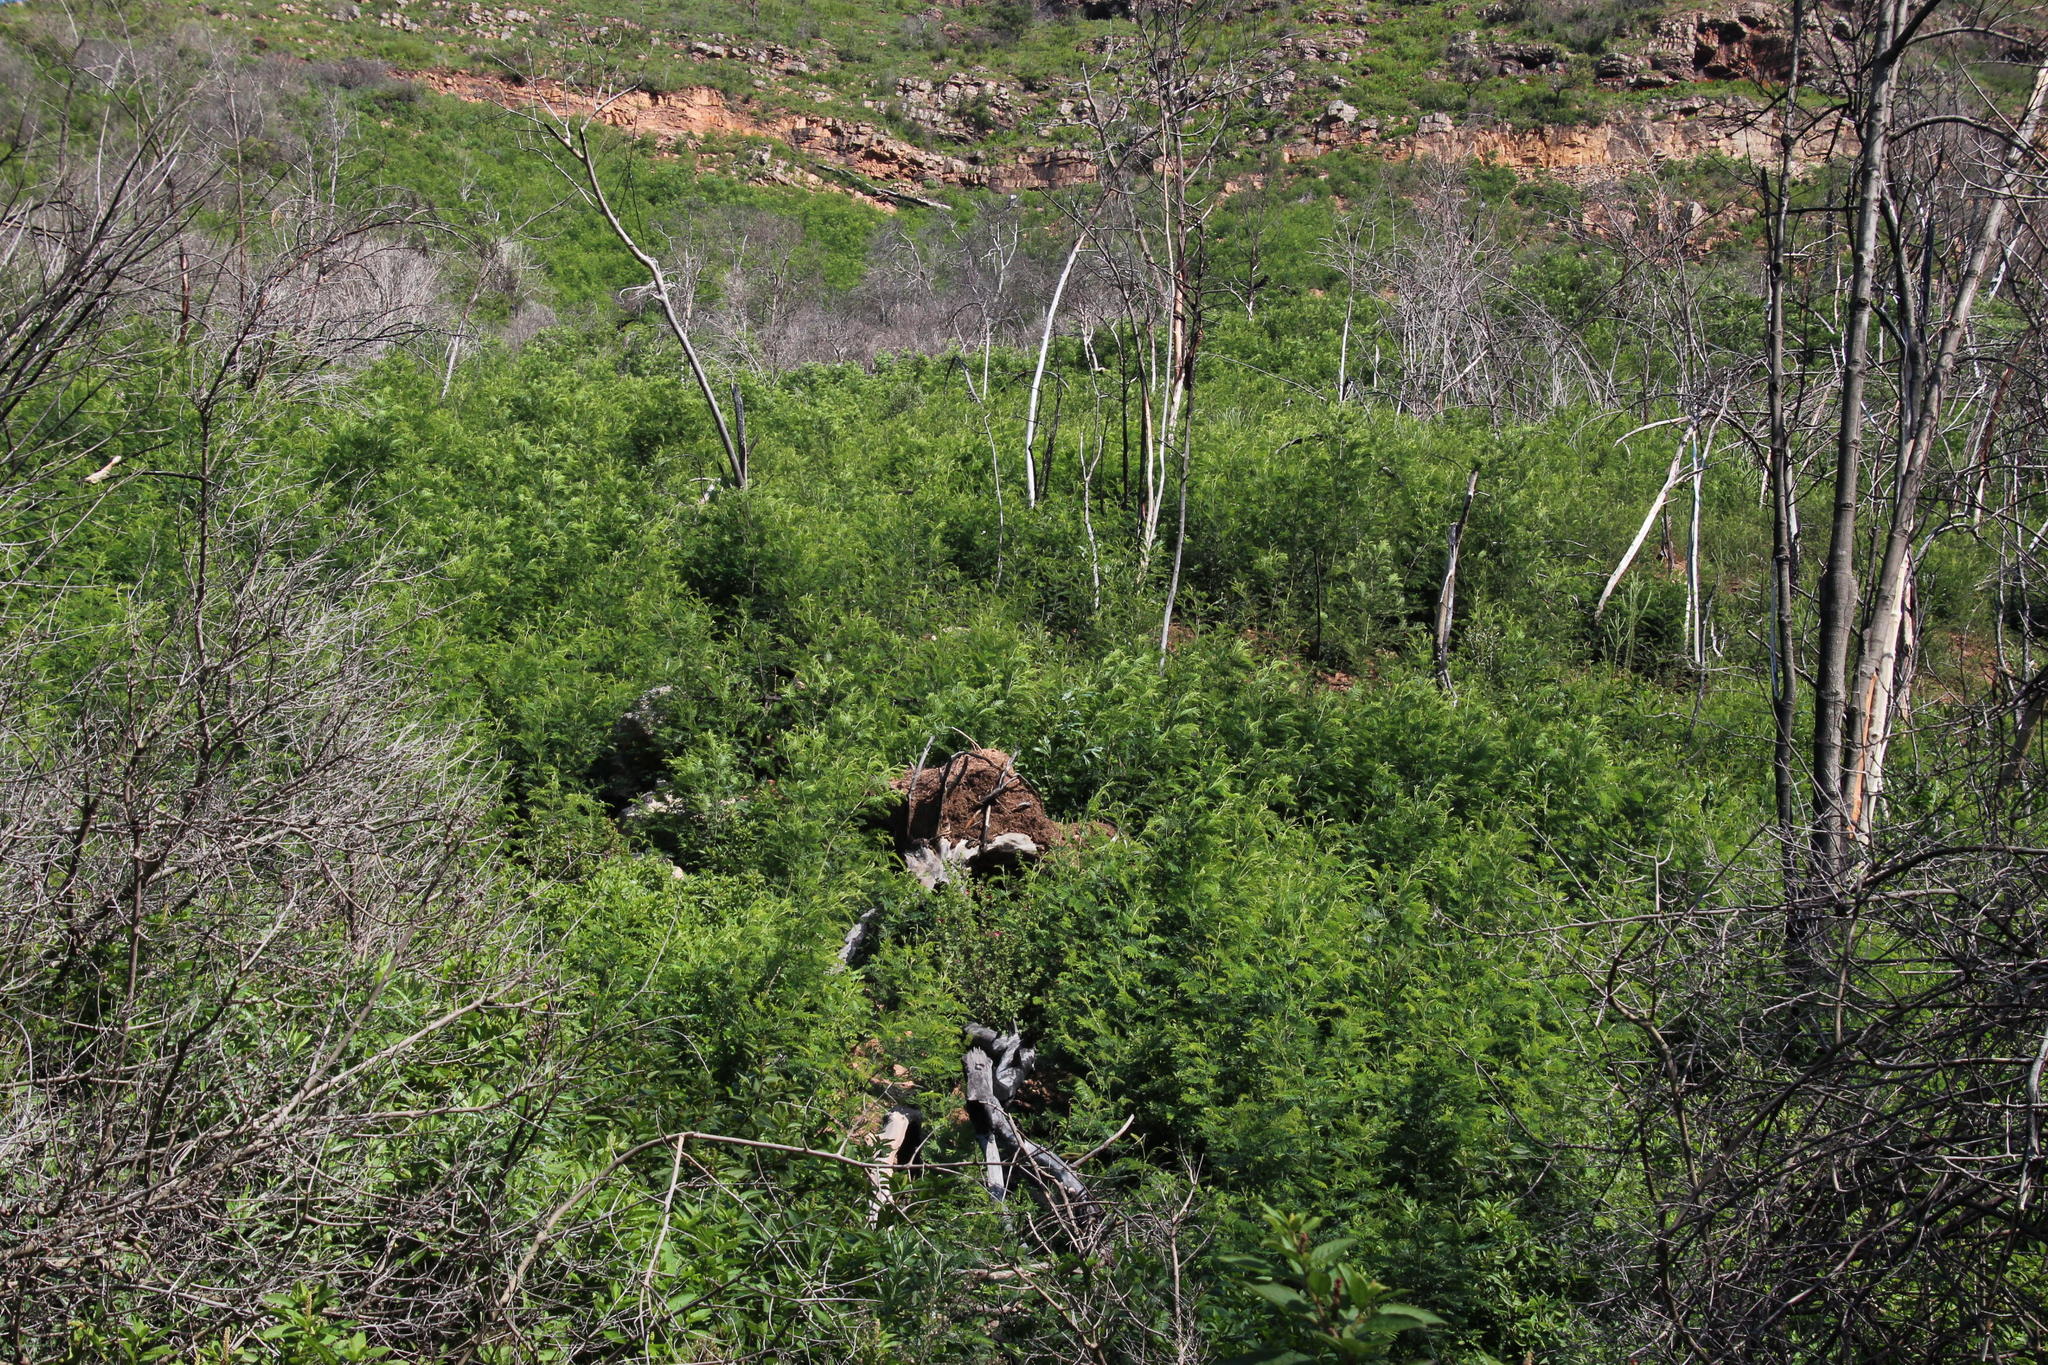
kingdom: Plantae
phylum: Tracheophyta
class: Magnoliopsida
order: Fabales
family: Fabaceae
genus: Paraserianthes
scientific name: Paraserianthes lophantha
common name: Plume albizia
